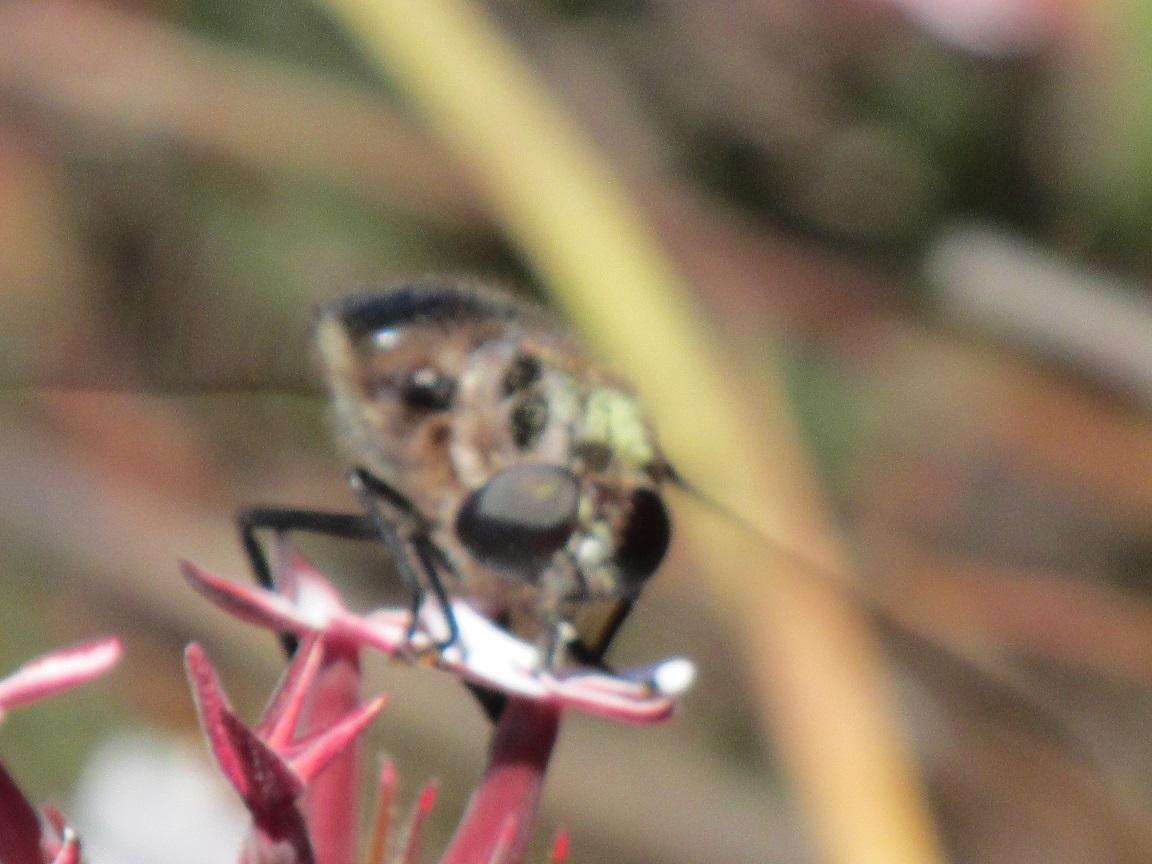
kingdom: Animalia
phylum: Arthropoda
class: Insecta
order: Diptera
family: Nemestrinidae
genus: Prosoeca
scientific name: Prosoeca westermanni
